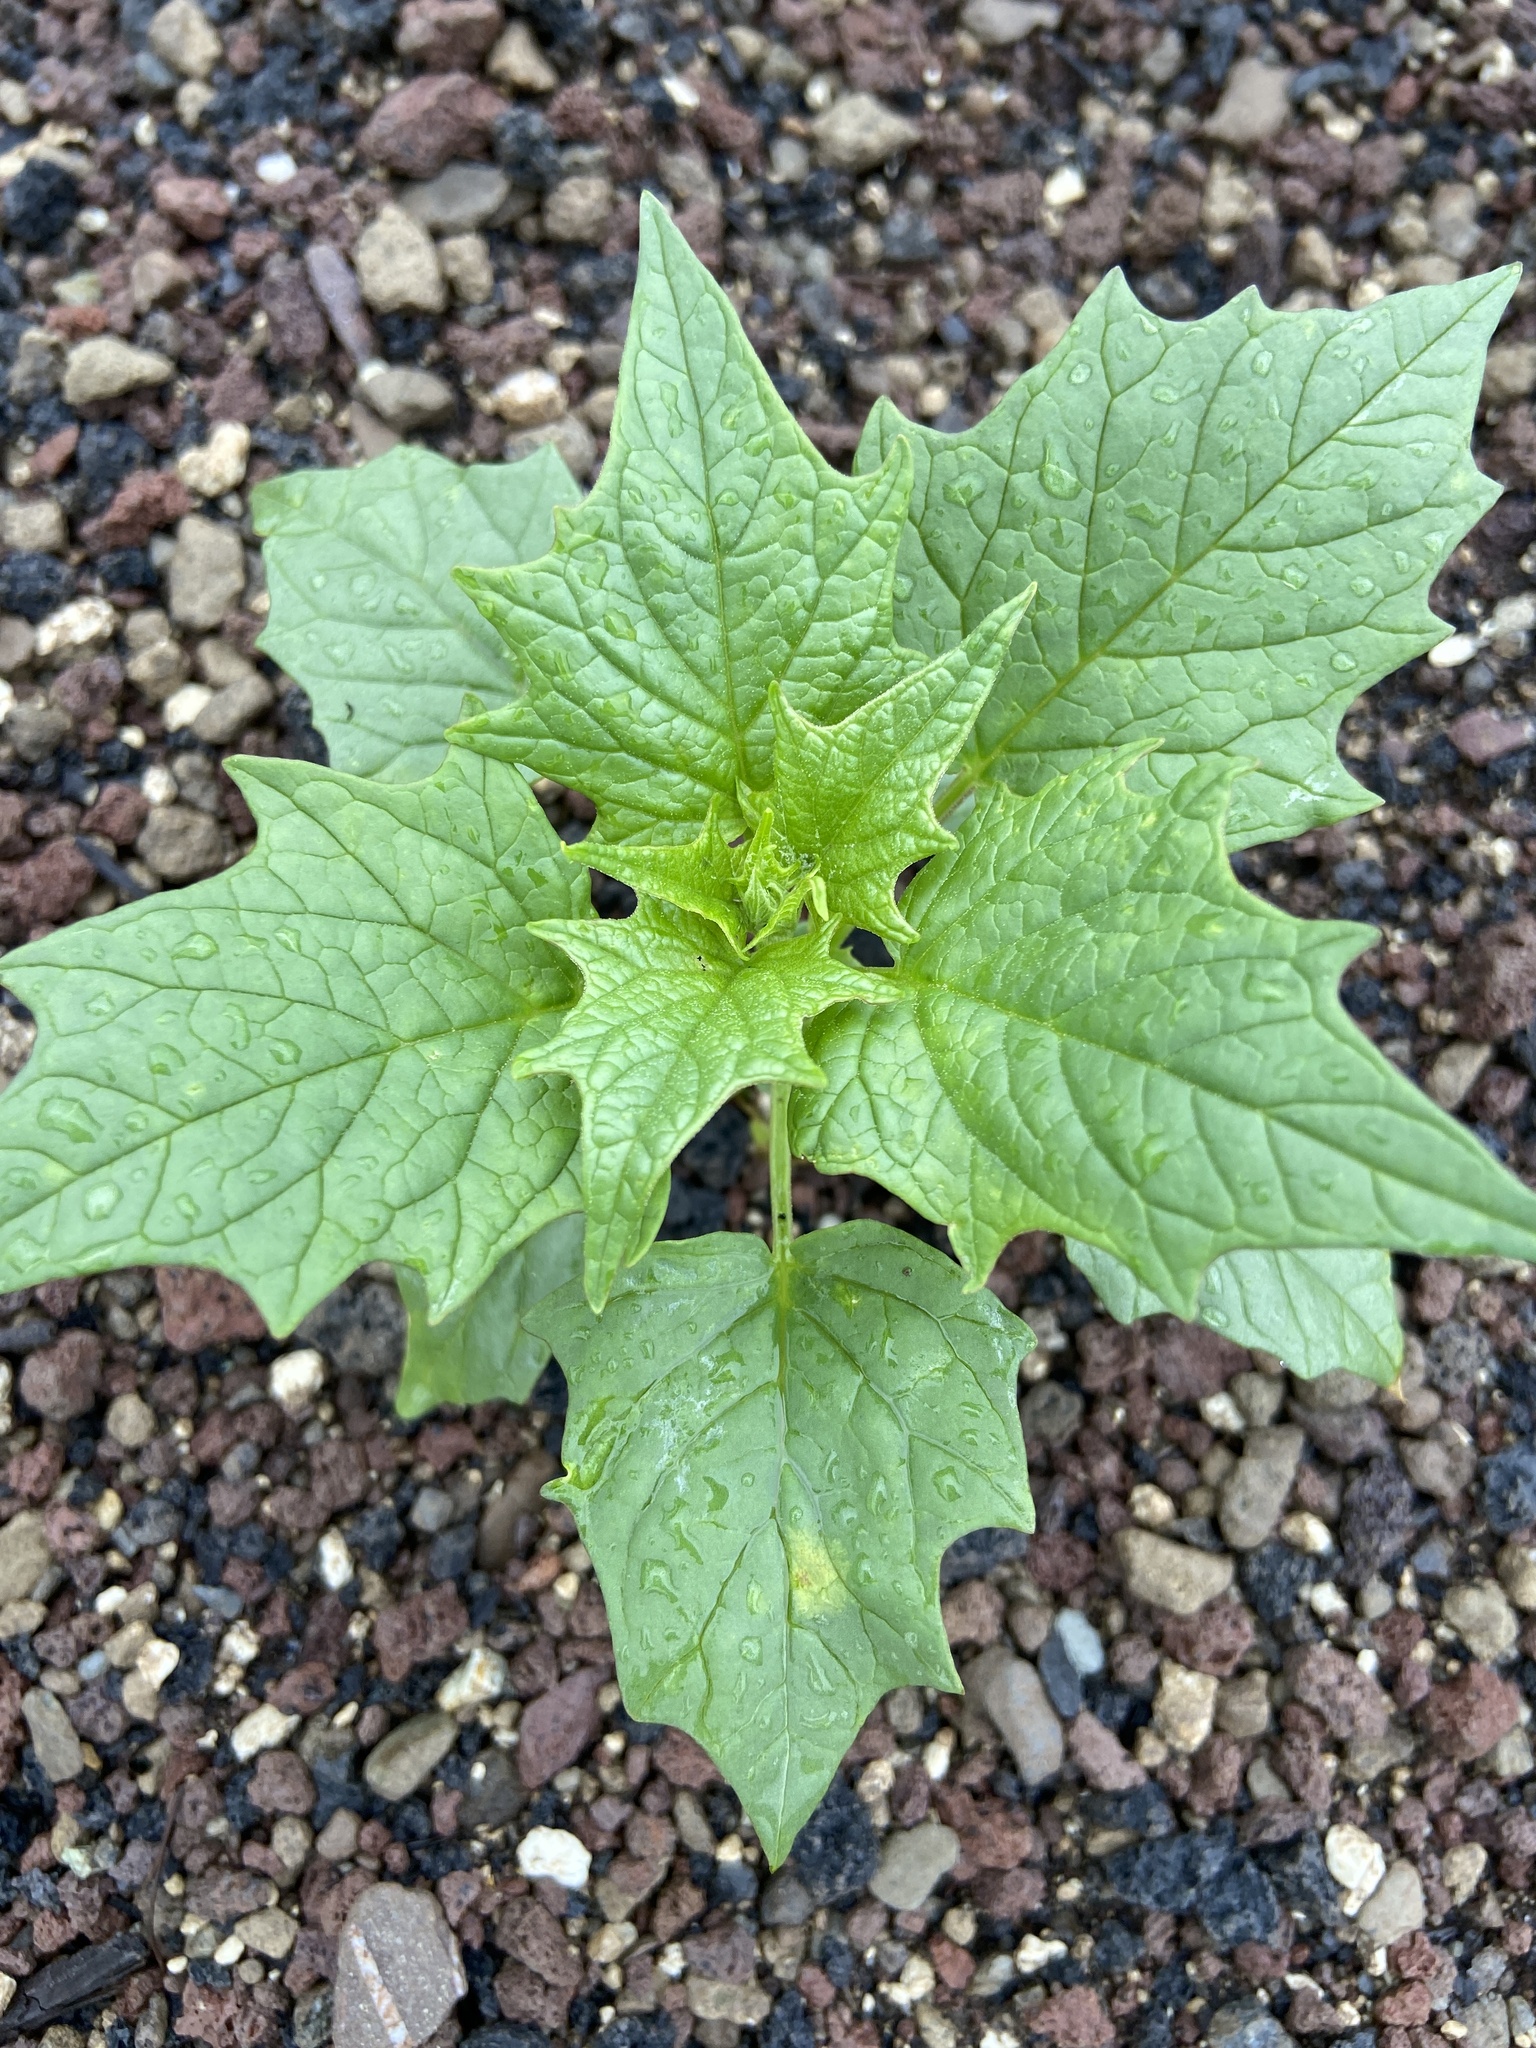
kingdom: Plantae
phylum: Tracheophyta
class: Magnoliopsida
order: Caryophyllales
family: Amaranthaceae
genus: Chenopodiastrum
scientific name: Chenopodiastrum hybridum
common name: Mapleleaf goosefoot
